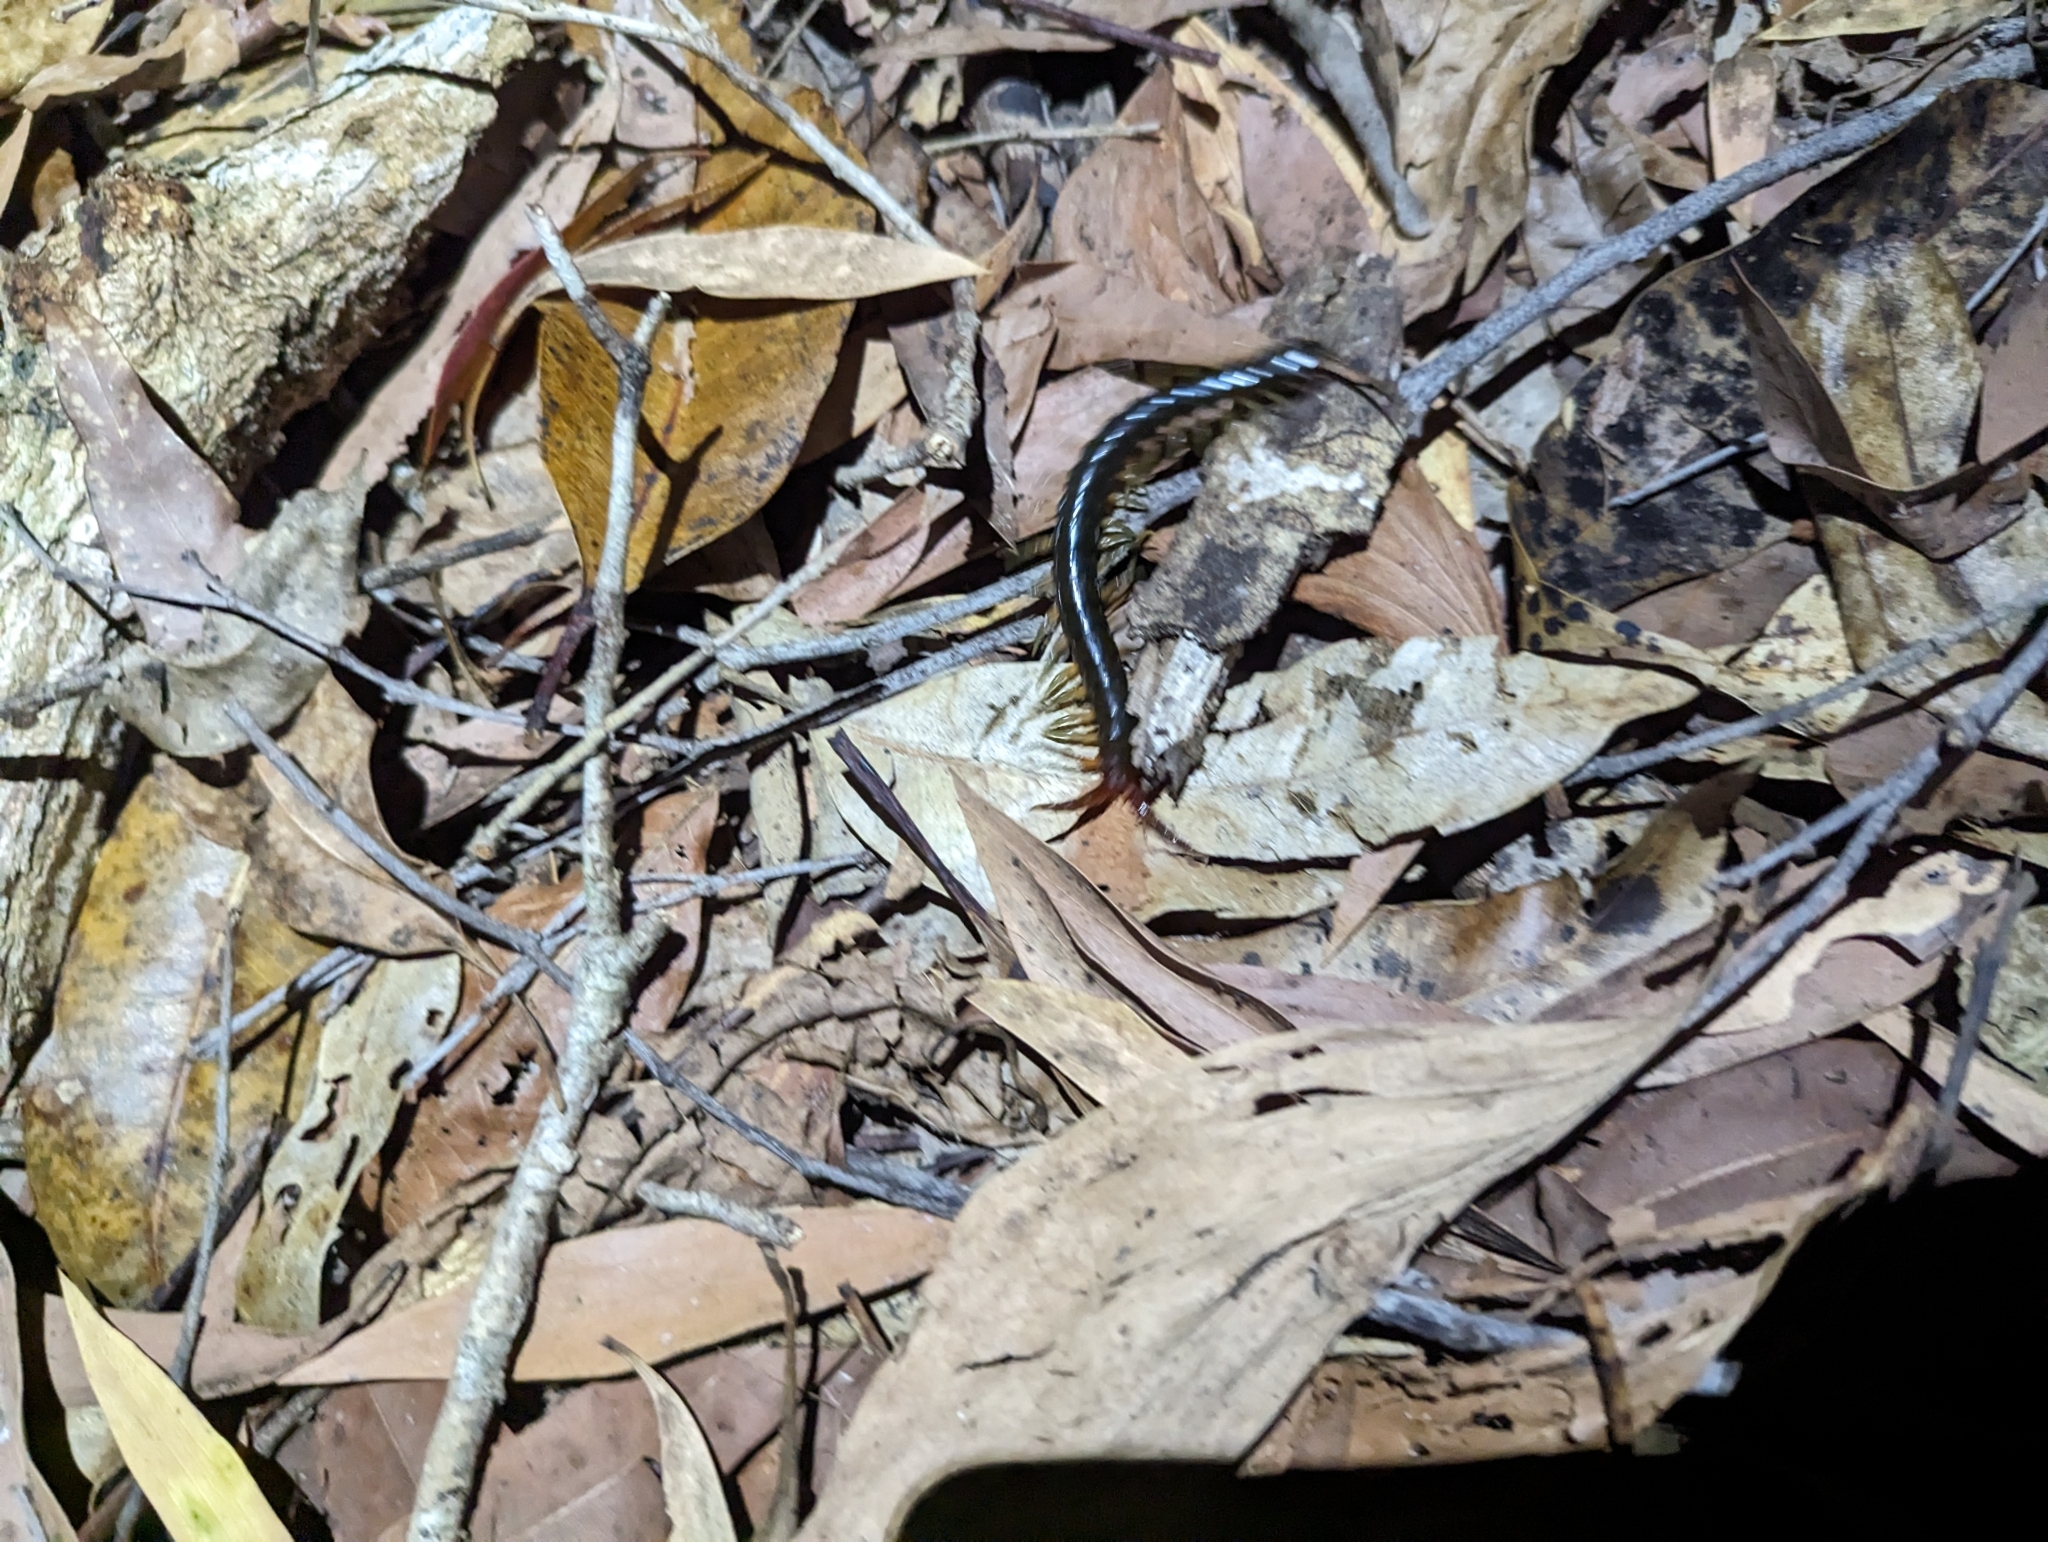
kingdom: Animalia
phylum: Arthropoda
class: Chilopoda
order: Scolopendromorpha
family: Scolopendridae
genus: Ethmostigmus
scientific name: Ethmostigmus rubripes
